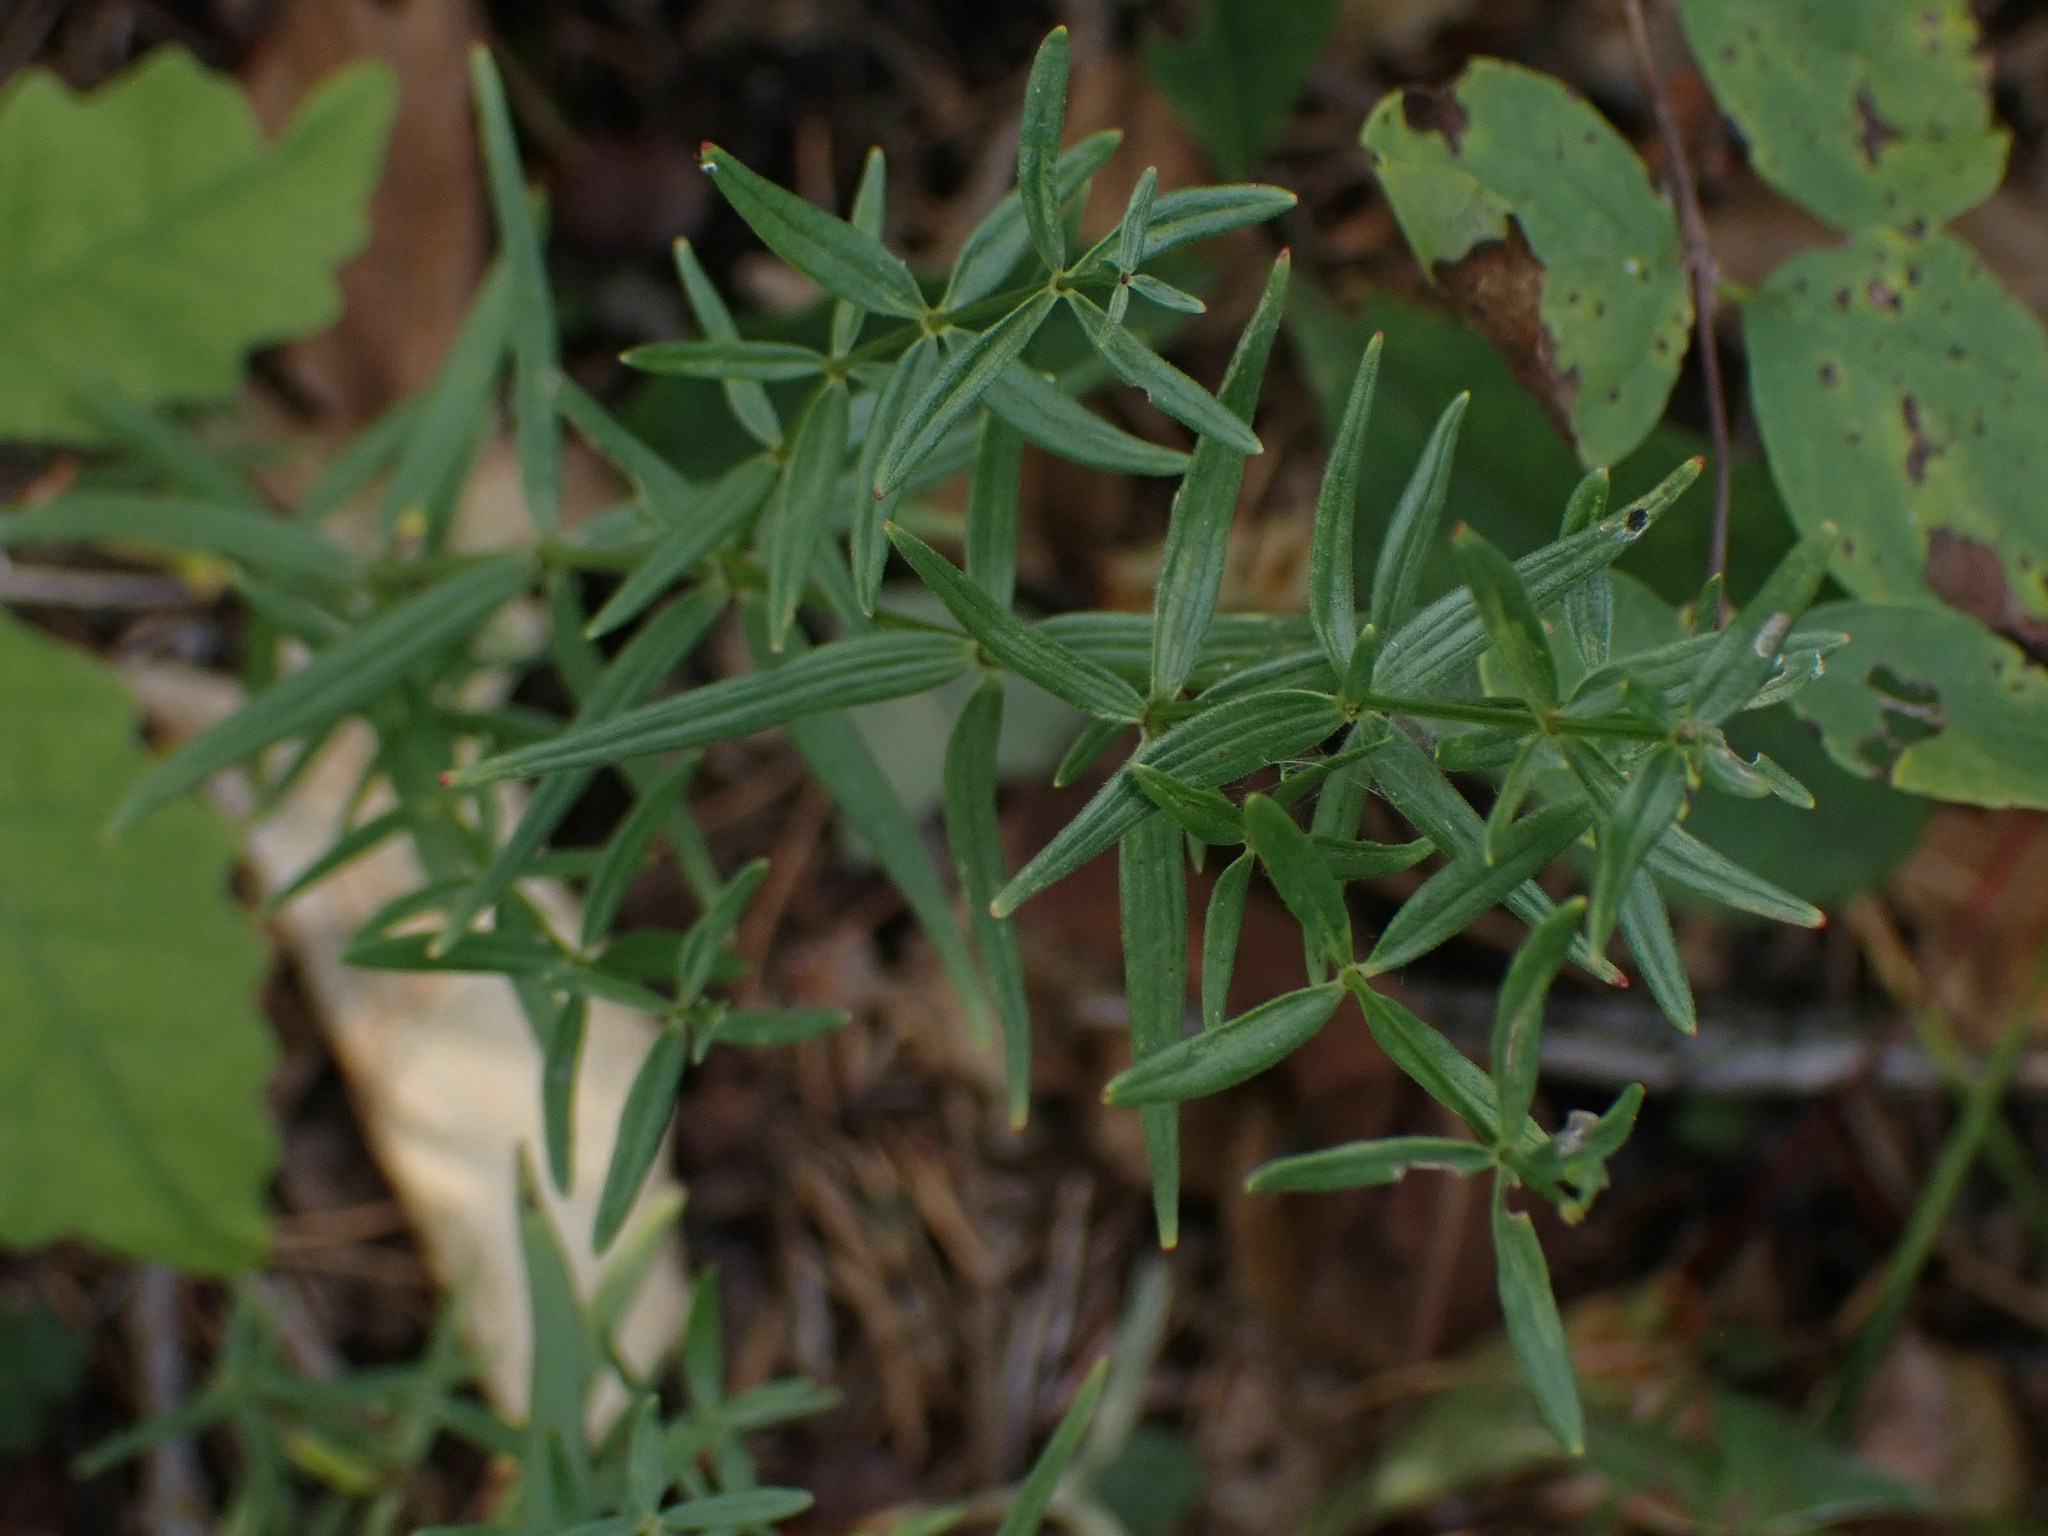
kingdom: Plantae
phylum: Tracheophyta
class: Magnoliopsida
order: Gentianales
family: Rubiaceae
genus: Galium
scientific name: Galium boreale
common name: Northern bedstraw
